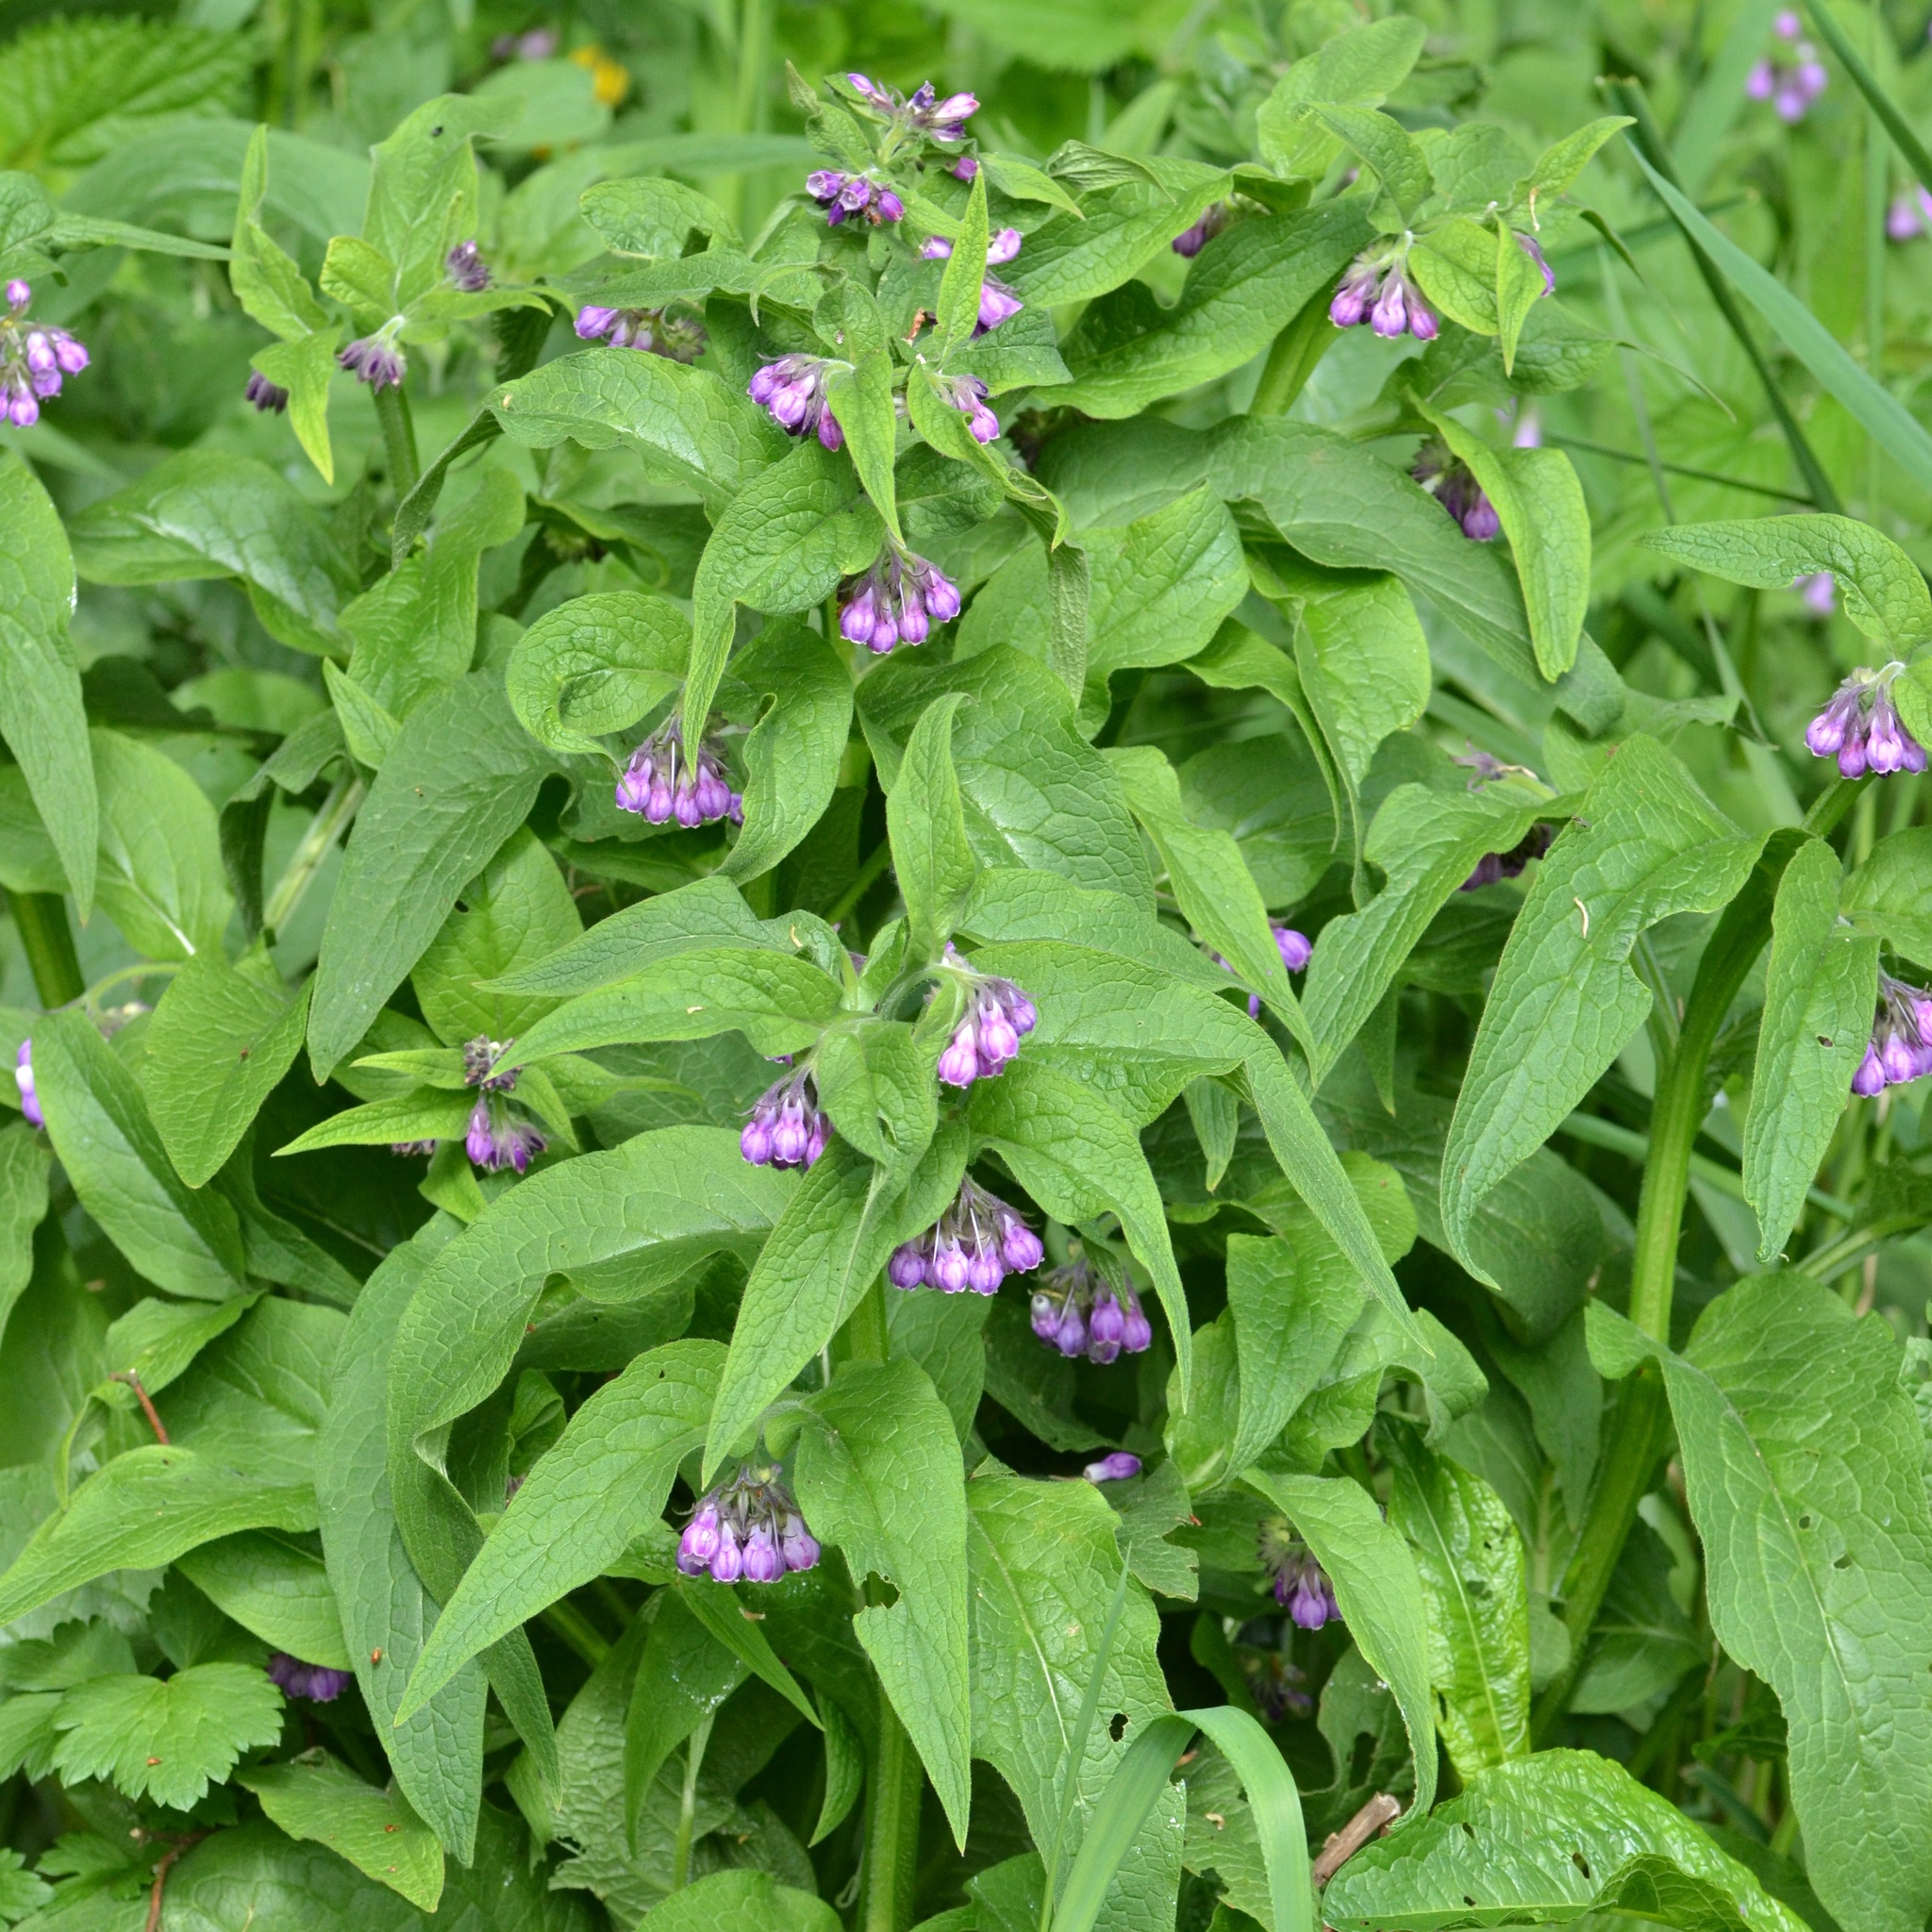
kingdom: Plantae
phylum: Tracheophyta
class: Magnoliopsida
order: Boraginales
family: Boraginaceae
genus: Symphytum
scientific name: Symphytum officinale
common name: Common comfrey
